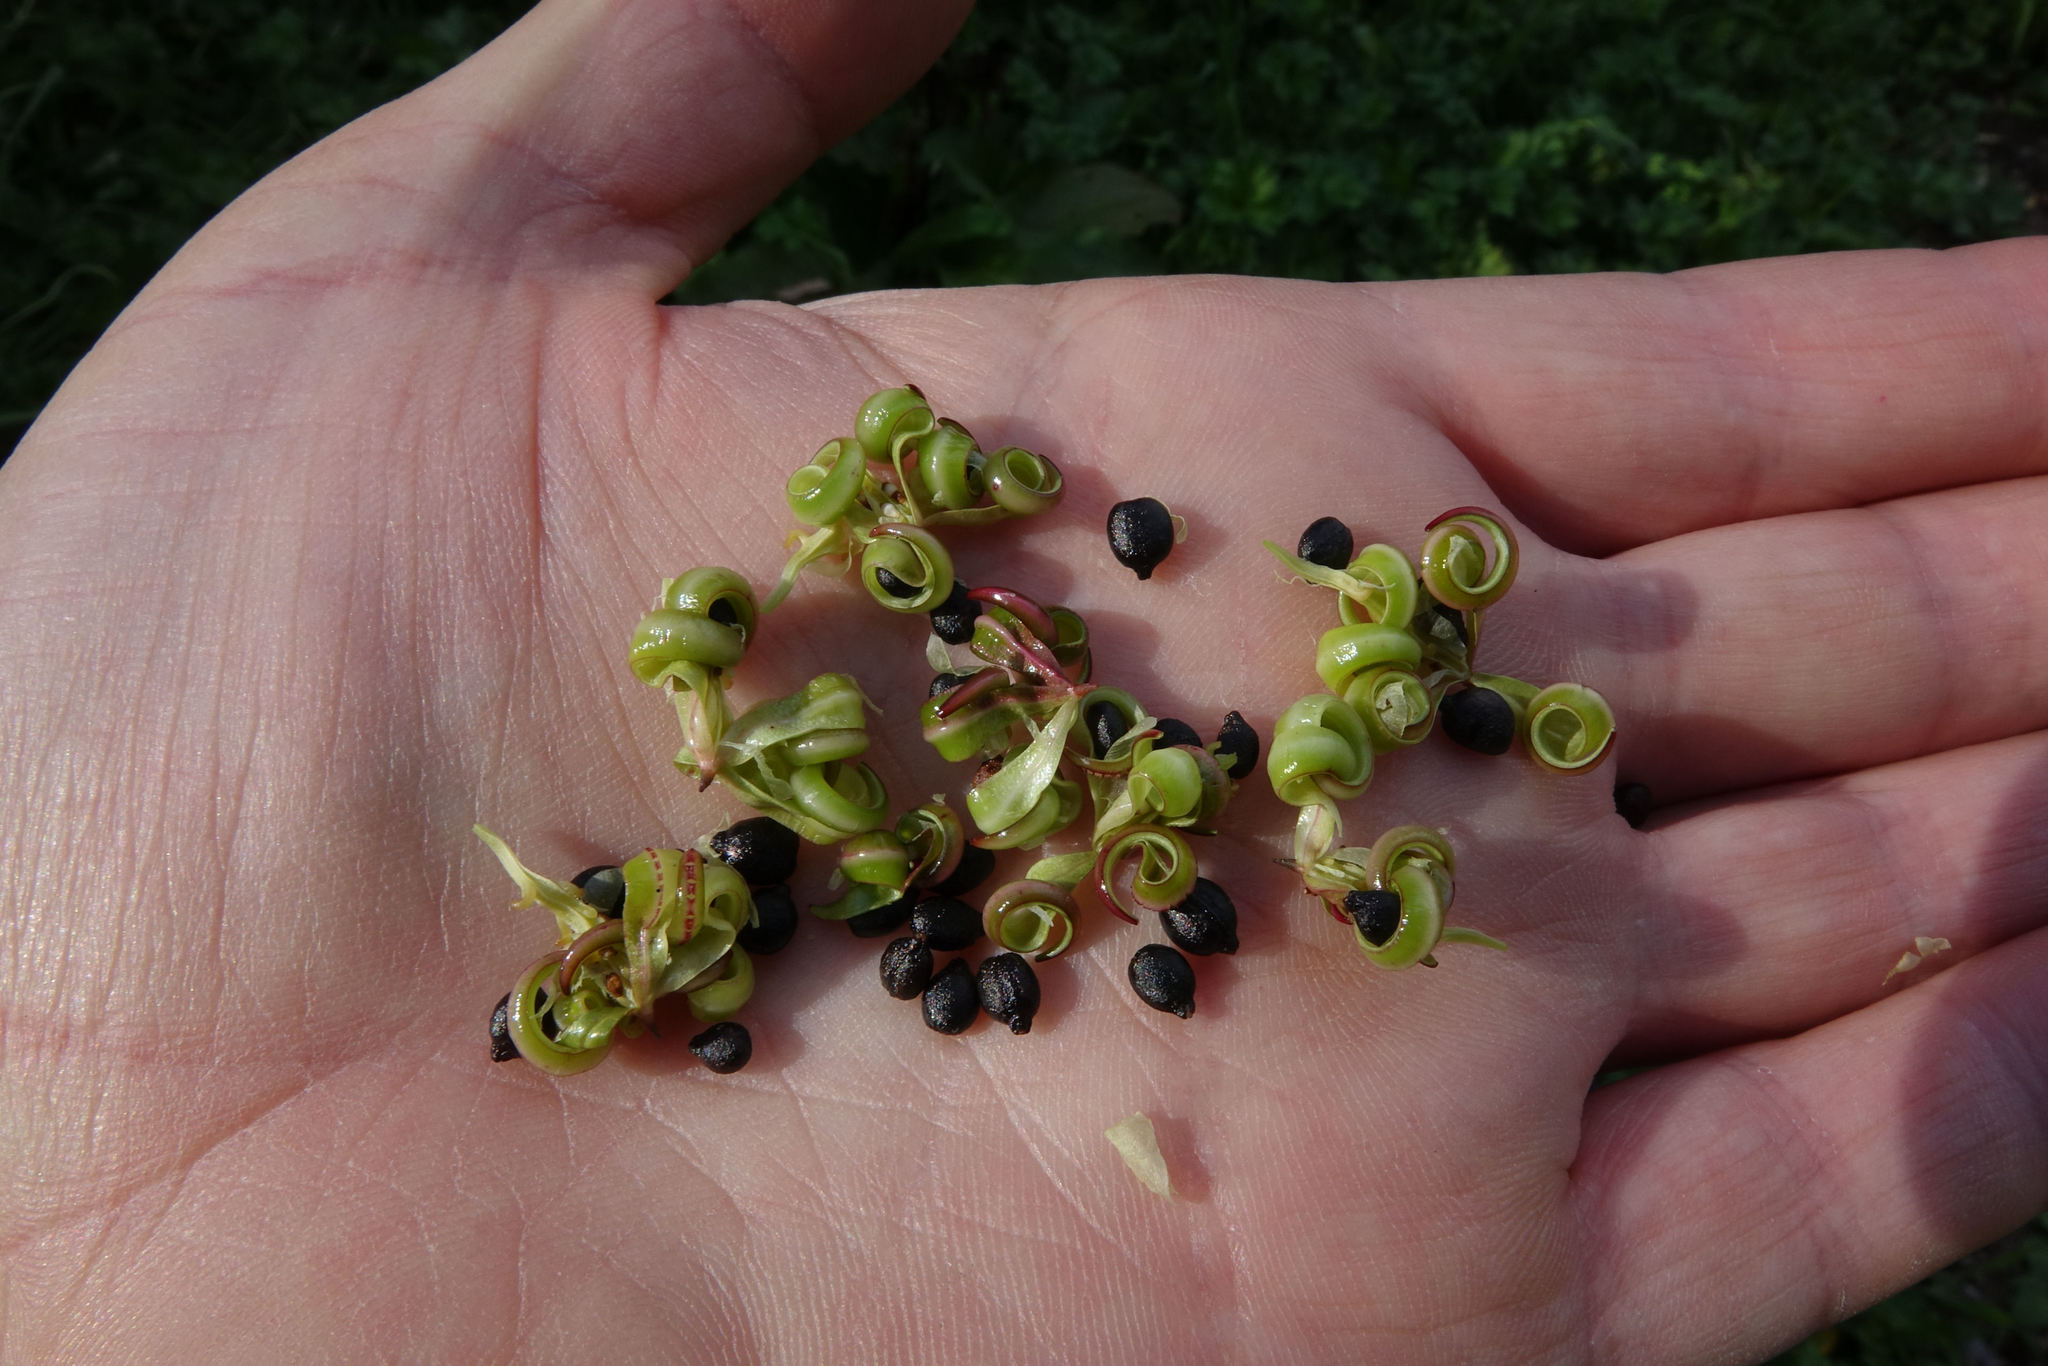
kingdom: Plantae
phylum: Tracheophyta
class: Magnoliopsida
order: Ericales
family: Balsaminaceae
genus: Impatiens
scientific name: Impatiens glandulifera
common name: Himalayan balsam
